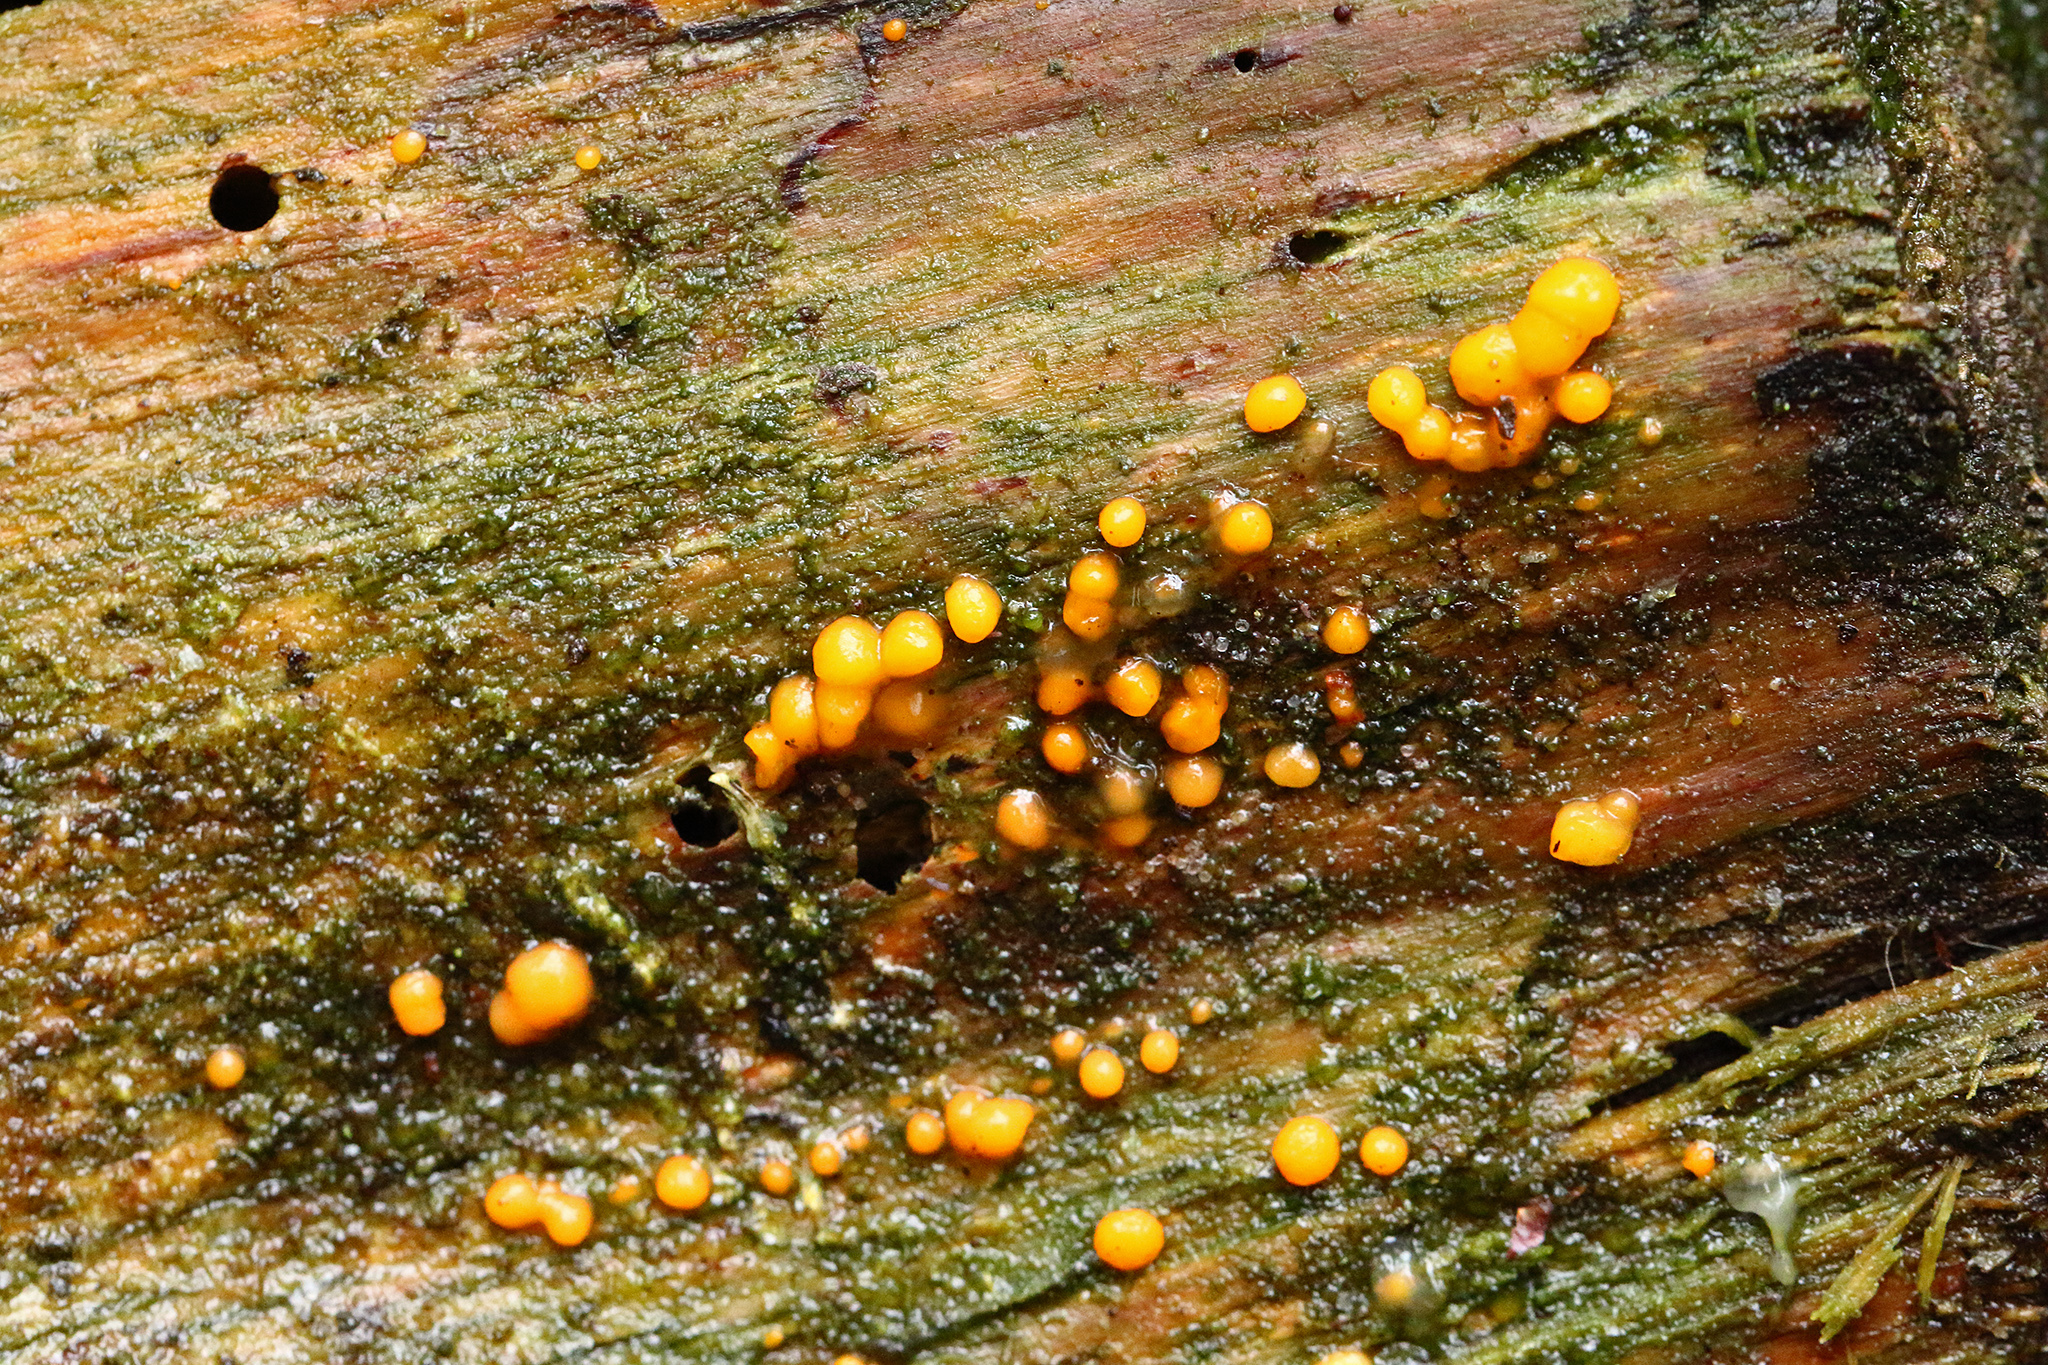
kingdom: Fungi
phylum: Basidiomycota
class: Dacrymycetes
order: Dacrymycetales
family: Dacrymycetaceae
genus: Dacrymyces
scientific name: Dacrymyces stillatus
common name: Common jelly spot
